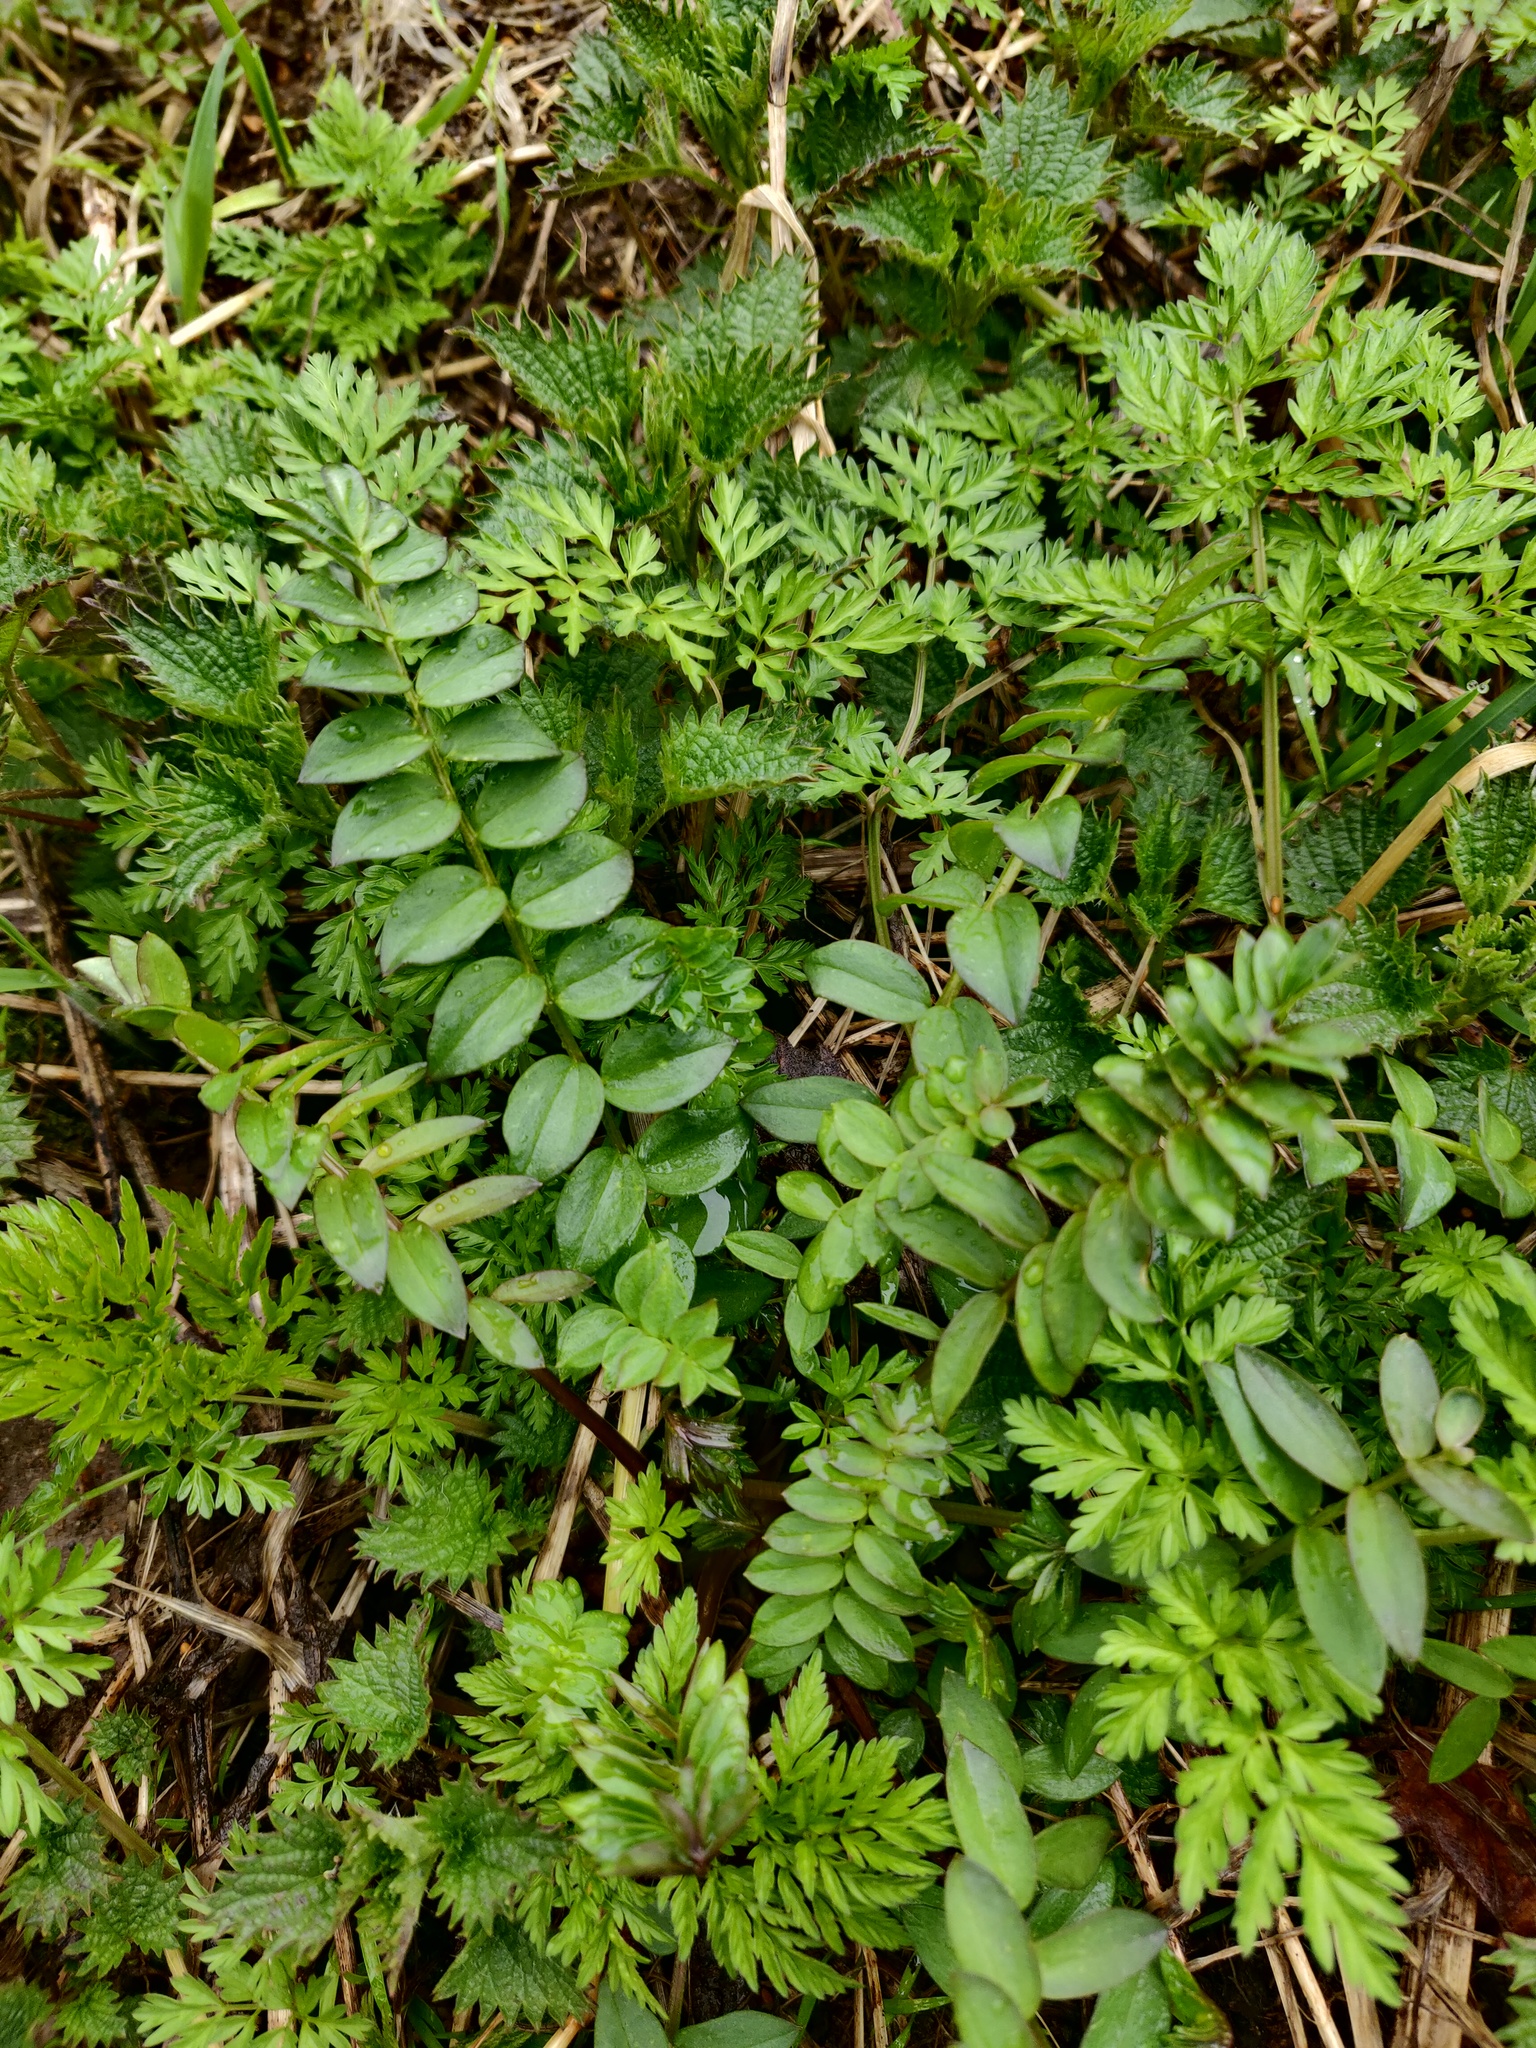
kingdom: Plantae
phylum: Tracheophyta
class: Magnoliopsida
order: Ericales
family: Polemoniaceae
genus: Polemonium
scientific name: Polemonium caeruleum
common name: Jacob's-ladder
